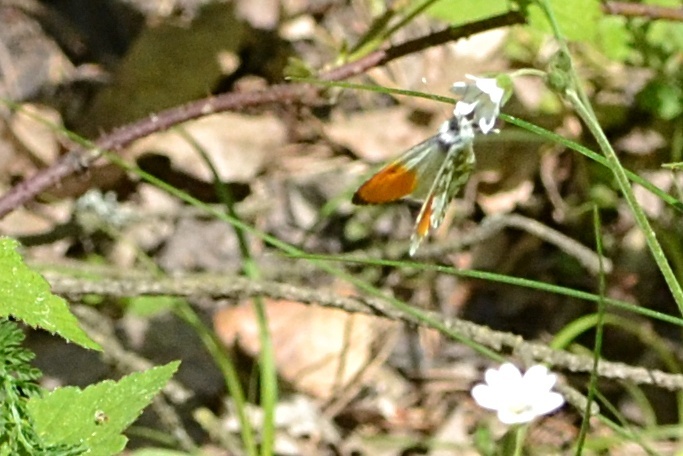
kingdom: Animalia
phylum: Arthropoda
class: Insecta
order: Lepidoptera
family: Pieridae
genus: Anthocharis
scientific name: Anthocharis cardamines
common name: Orange-tip
